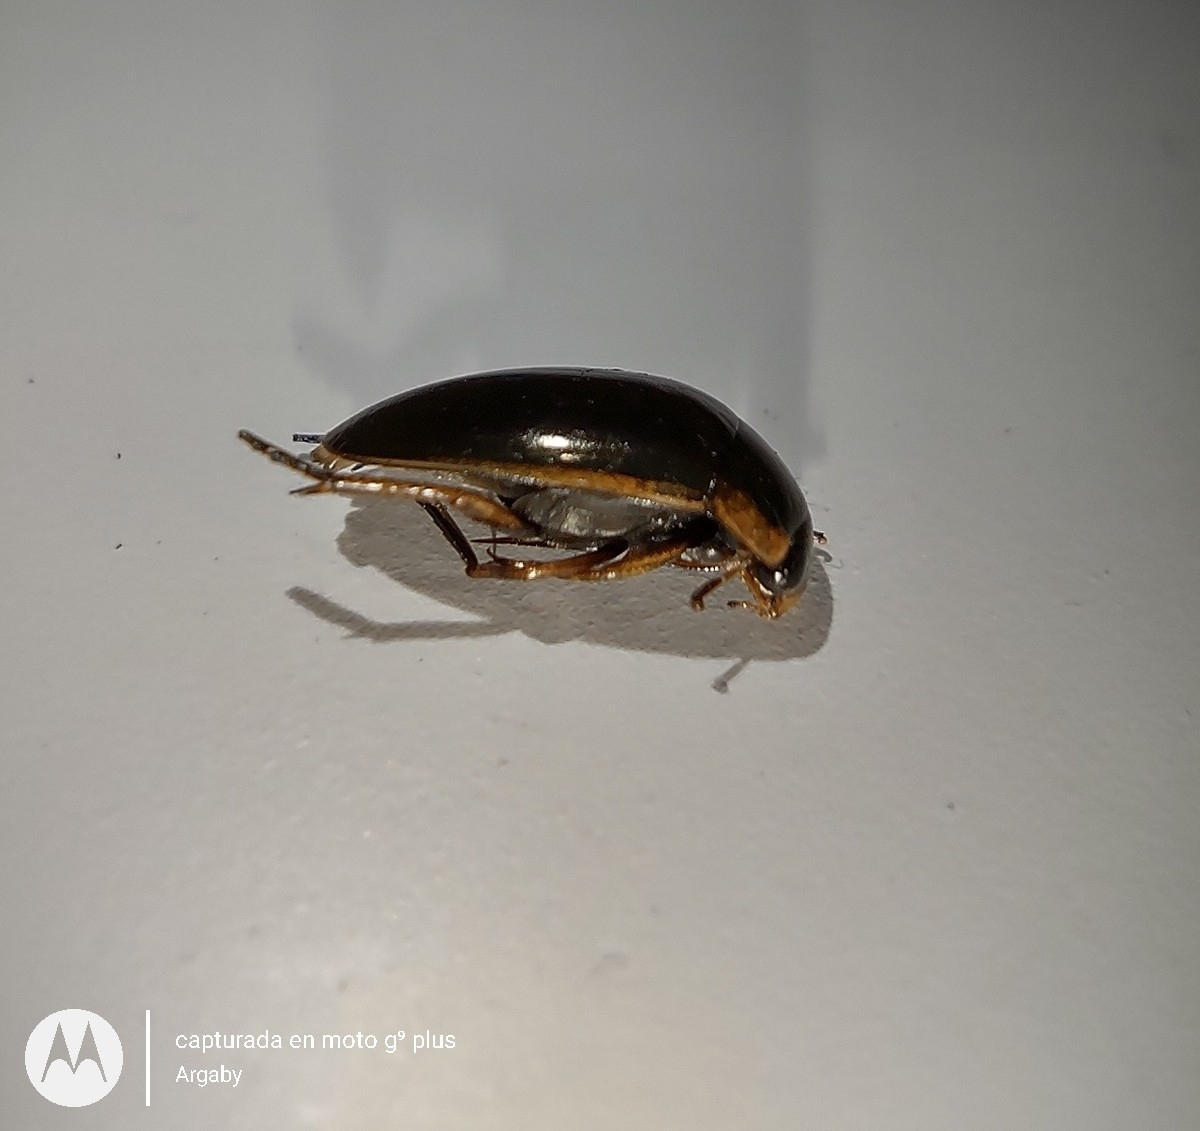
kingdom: Animalia
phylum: Arthropoda
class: Insecta
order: Coleoptera
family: Hydrophilidae
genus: Tropisternus
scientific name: Tropisternus lateralis
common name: Lateral-banded water scavenger beetle
